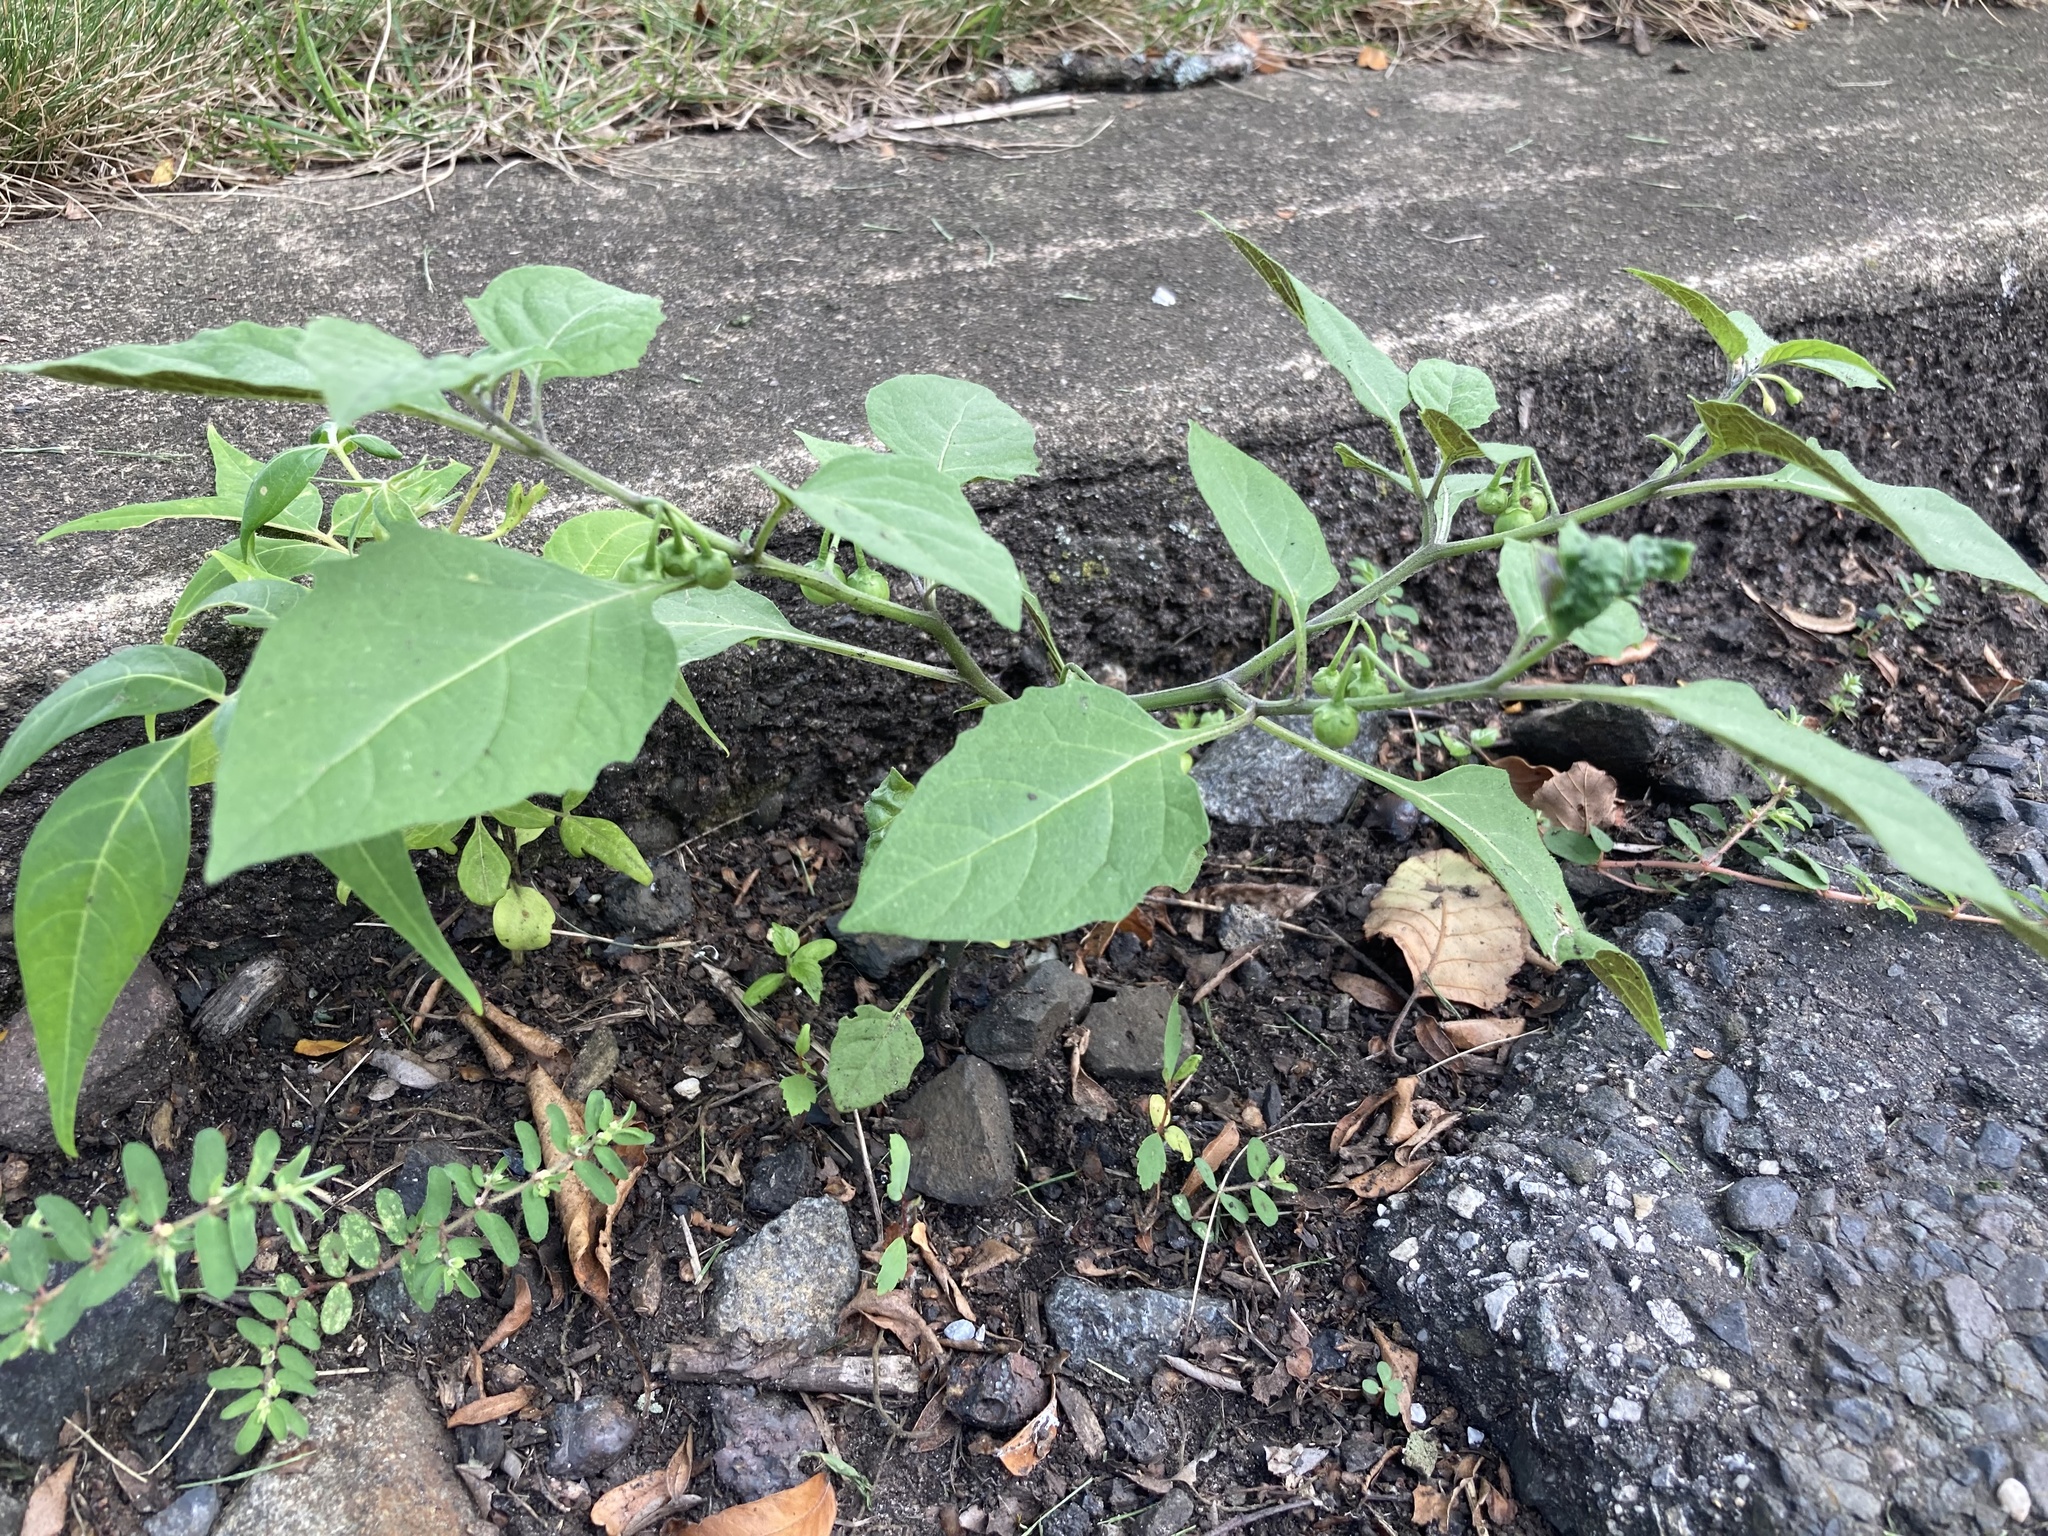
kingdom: Plantae
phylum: Tracheophyta
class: Magnoliopsida
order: Solanales
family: Solanaceae
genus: Solanum
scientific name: Solanum emulans
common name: Eastern black nightshade
